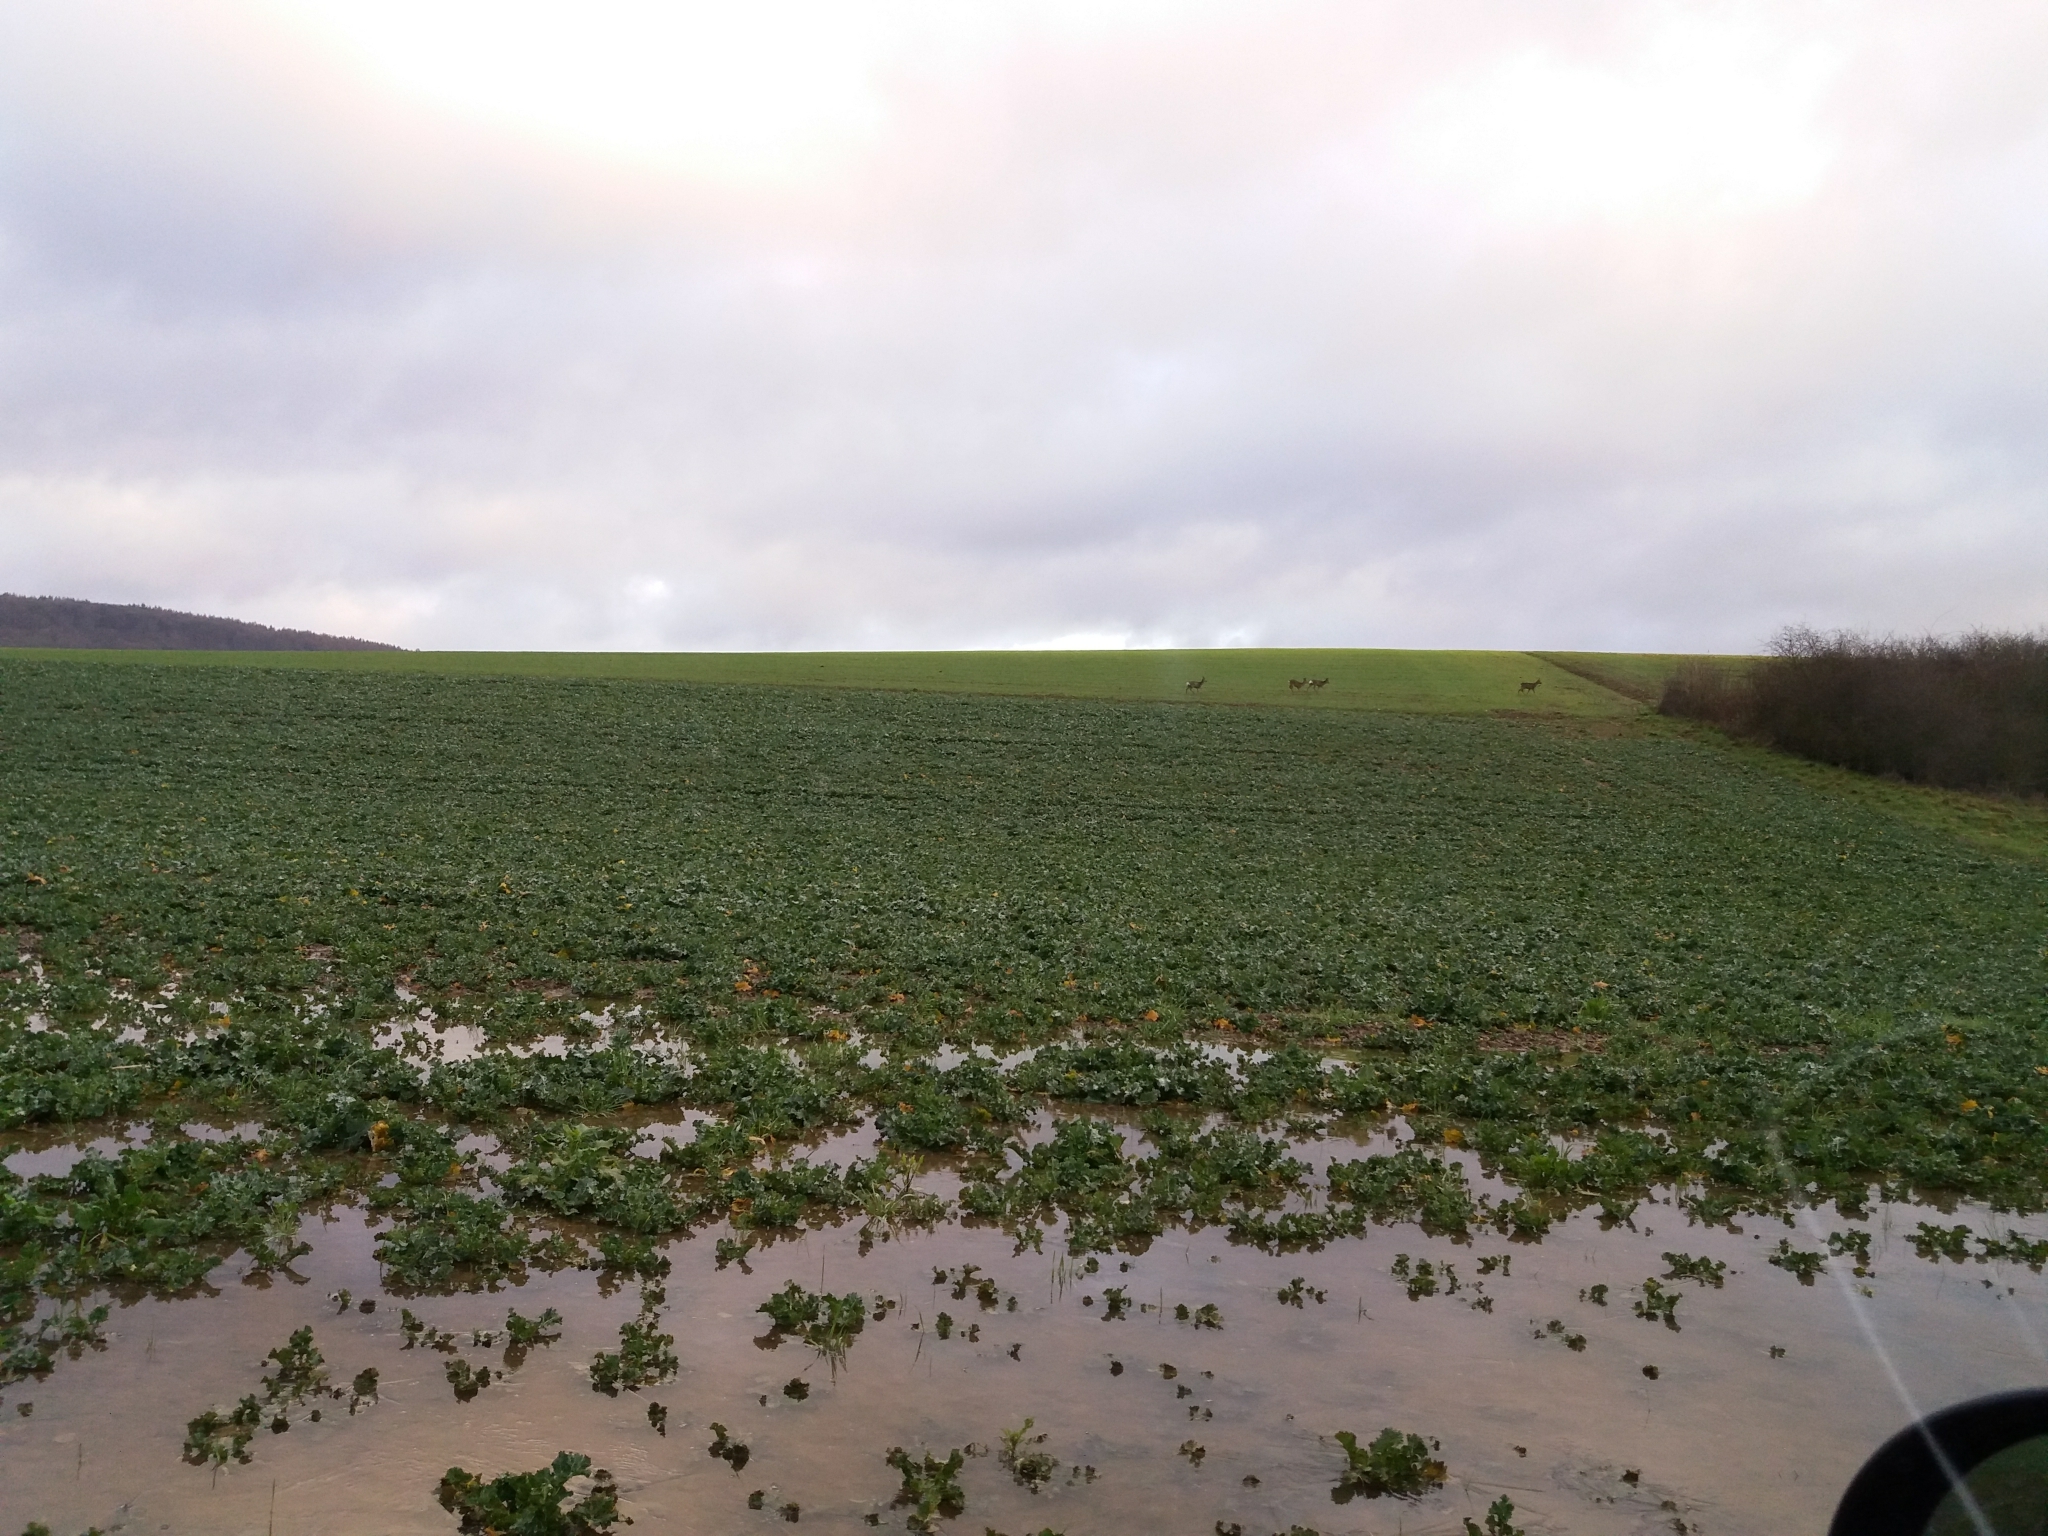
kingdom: Animalia
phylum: Chordata
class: Mammalia
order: Artiodactyla
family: Cervidae
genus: Capreolus
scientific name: Capreolus capreolus
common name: Western roe deer
